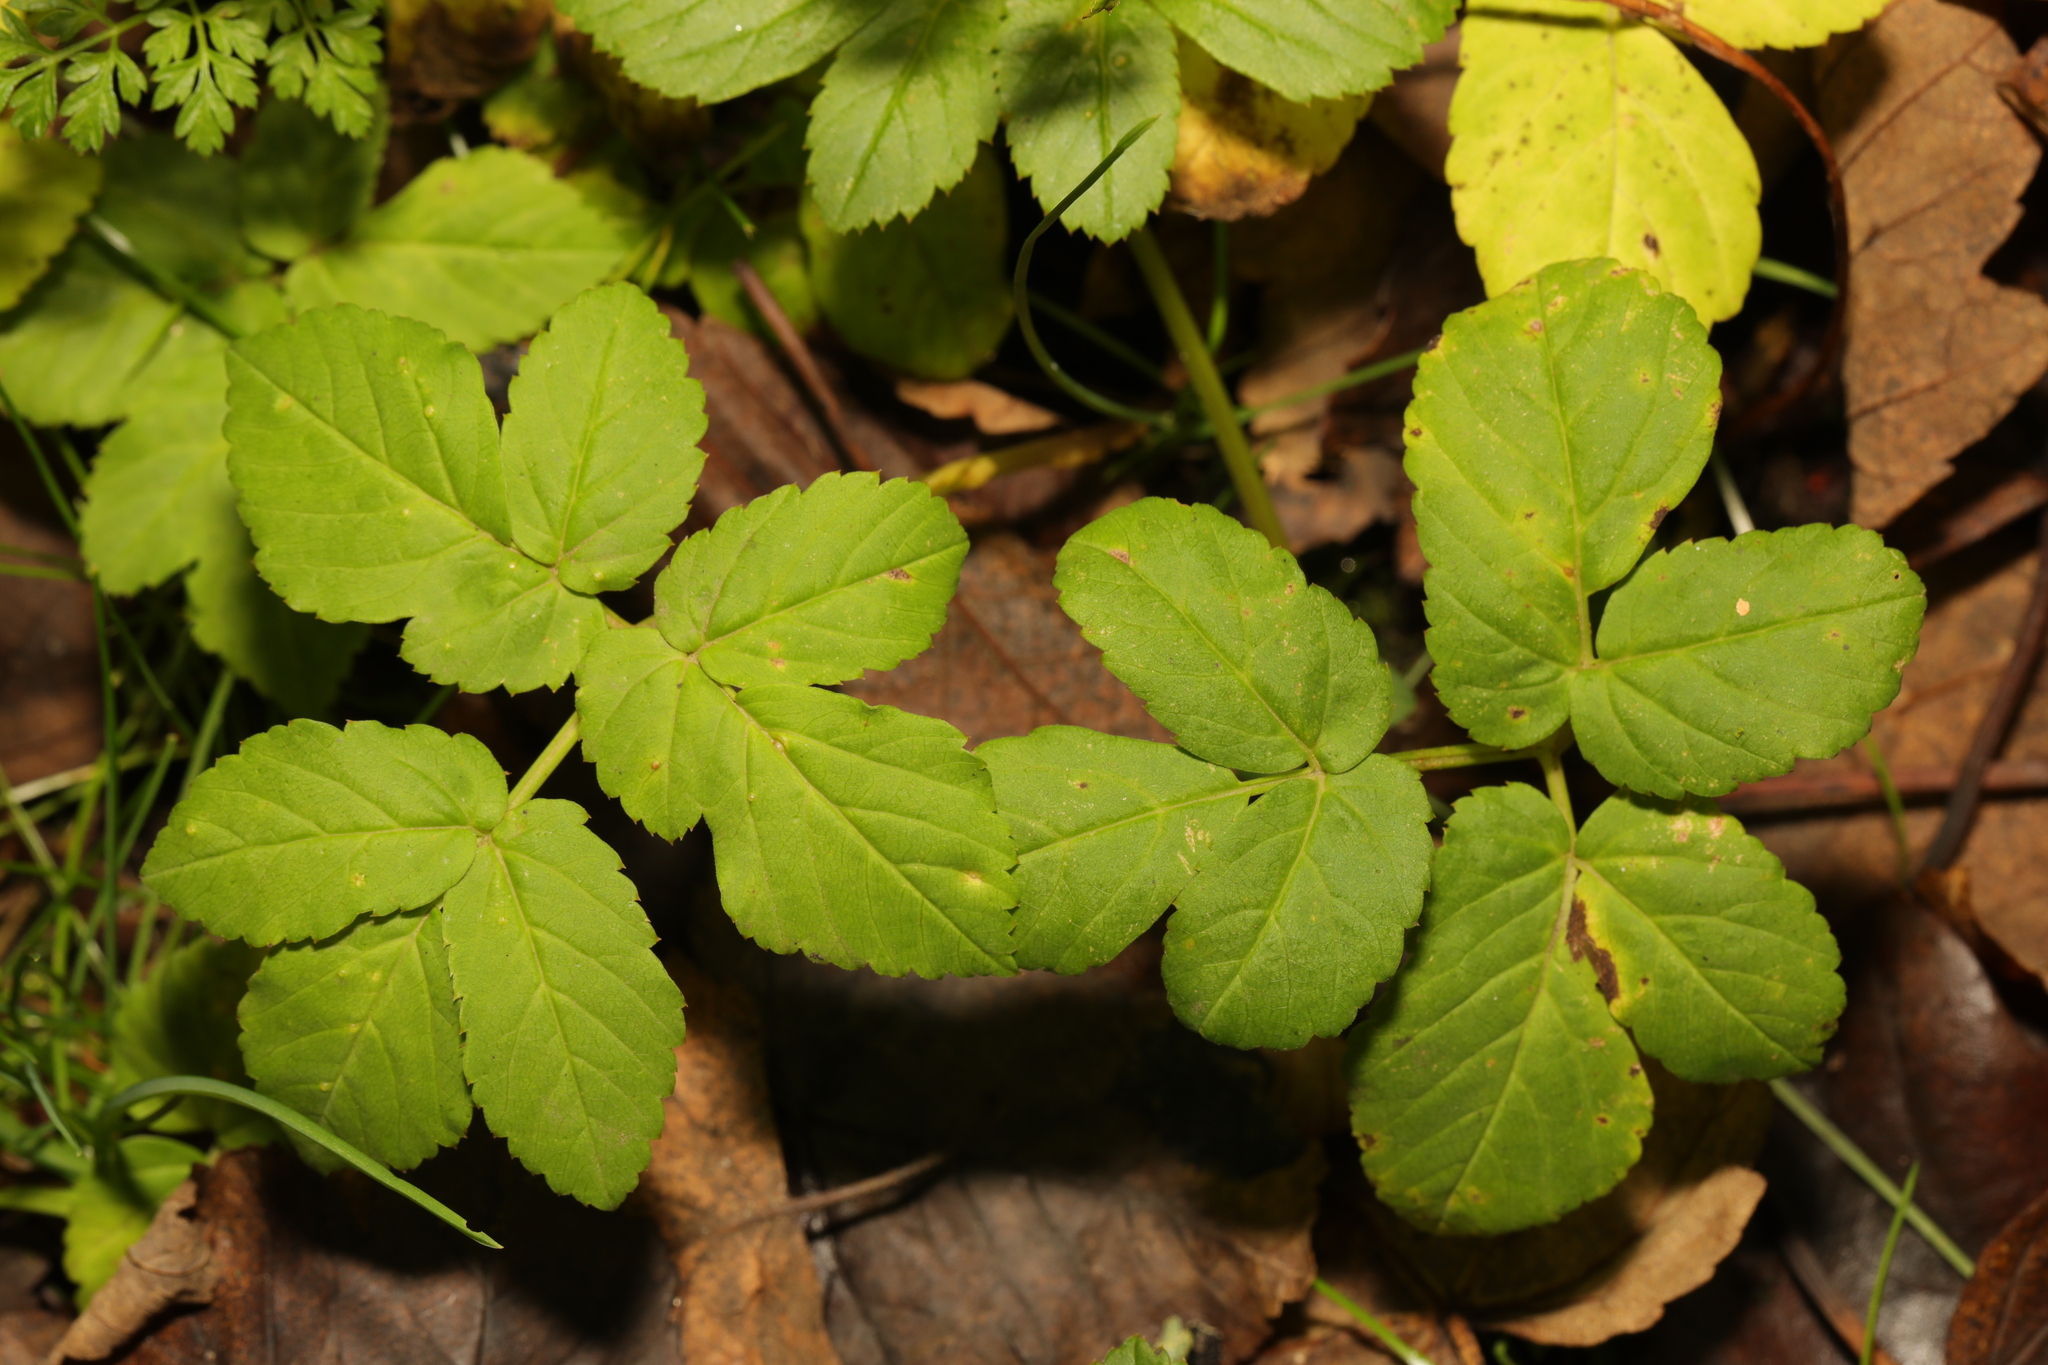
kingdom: Plantae
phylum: Tracheophyta
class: Magnoliopsida
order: Apiales
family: Apiaceae
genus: Aegopodium
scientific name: Aegopodium podagraria
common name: Ground-elder
